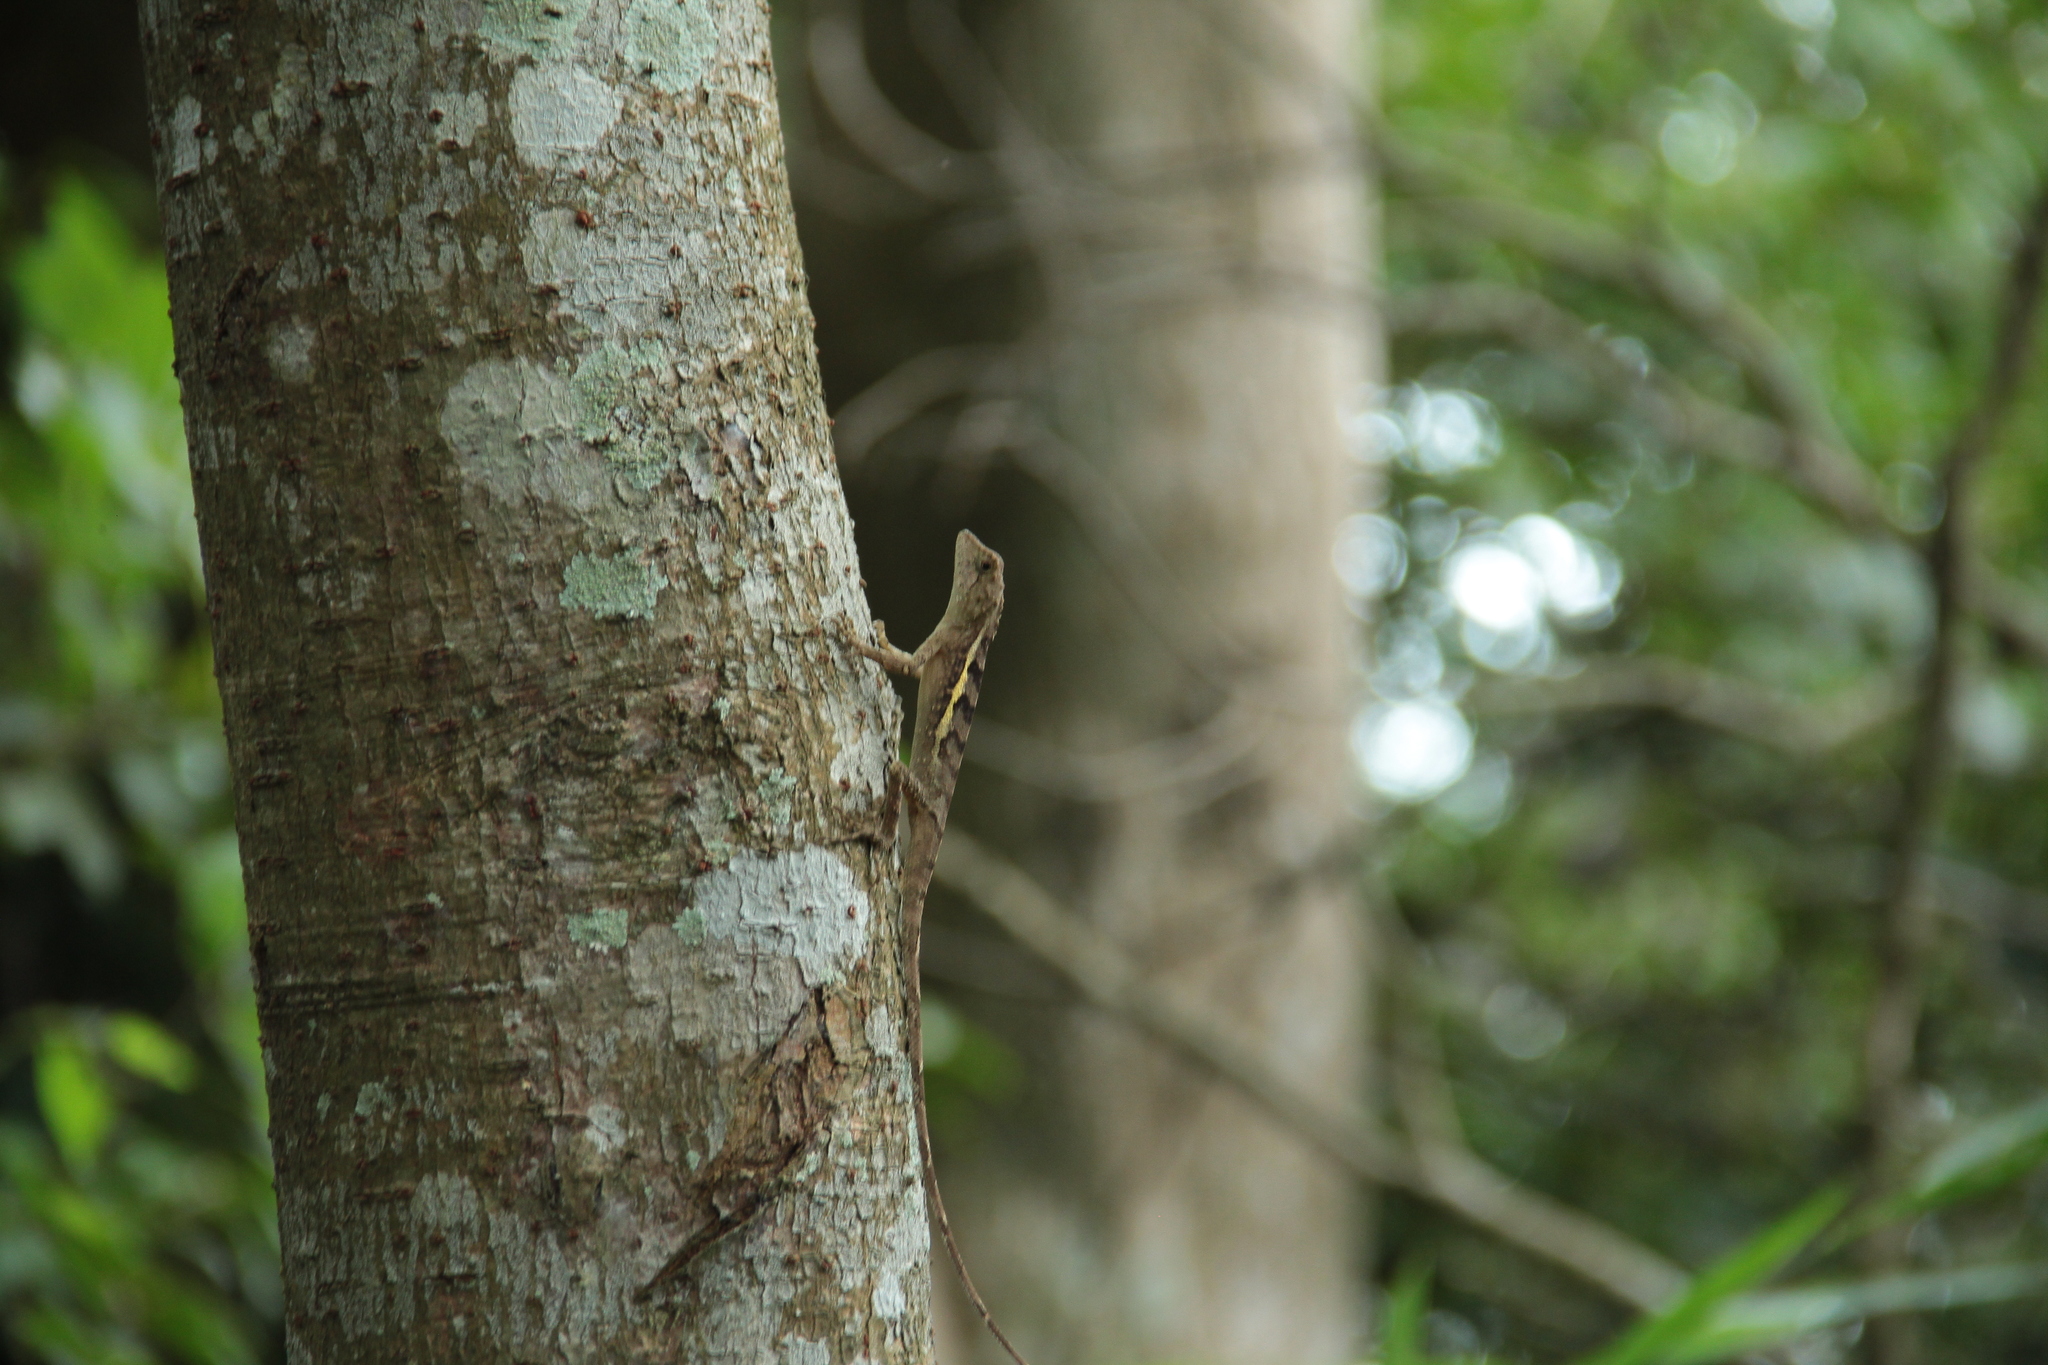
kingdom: Animalia
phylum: Chordata
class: Squamata
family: Agamidae
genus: Diploderma
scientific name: Diploderma swinhonis
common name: Taiwan japalure
